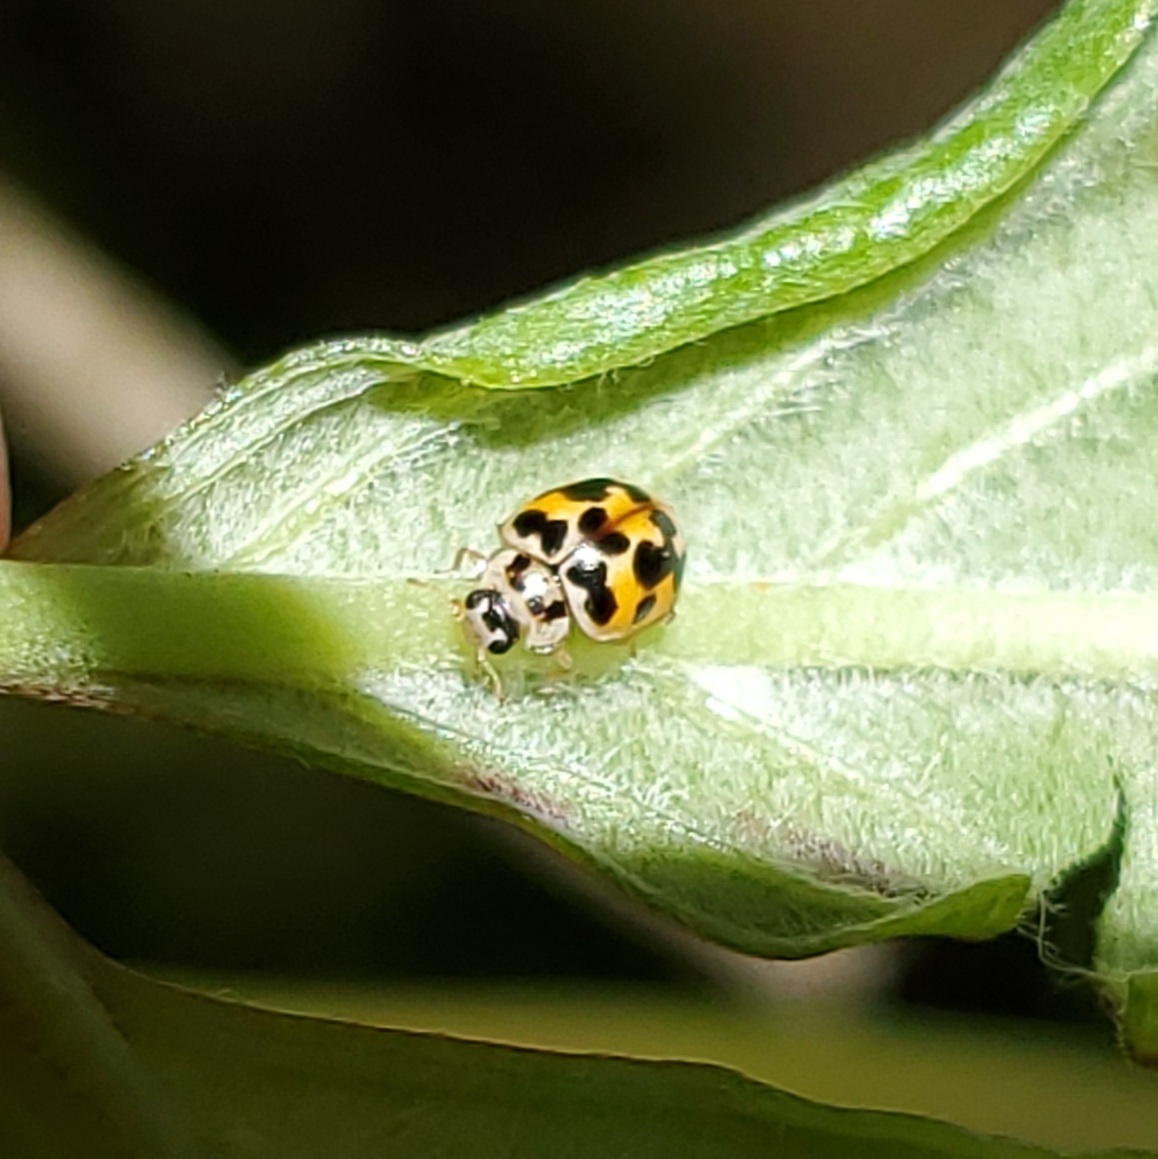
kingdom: Animalia
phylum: Arthropoda
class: Insecta
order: Coleoptera
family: Coccinellidae
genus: Psyllobora
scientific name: Psyllobora vigintimaculata
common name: Ladybird beetle
